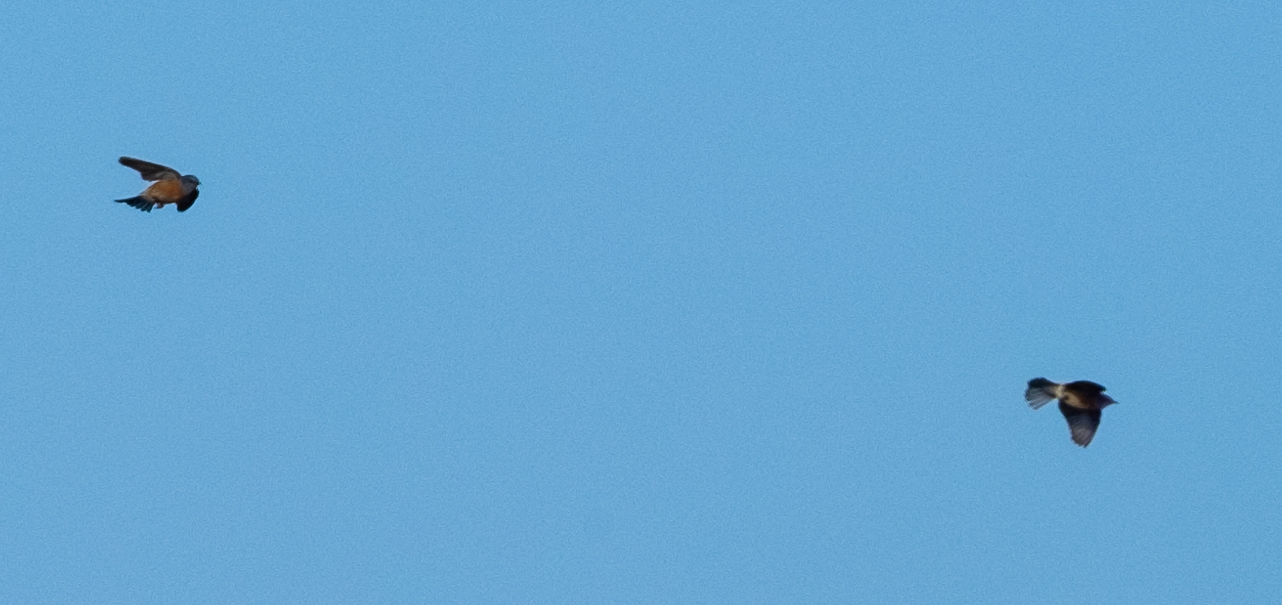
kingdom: Animalia
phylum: Chordata
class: Aves
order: Passeriformes
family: Turdidae
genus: Sialia
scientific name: Sialia mexicana
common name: Western bluebird
